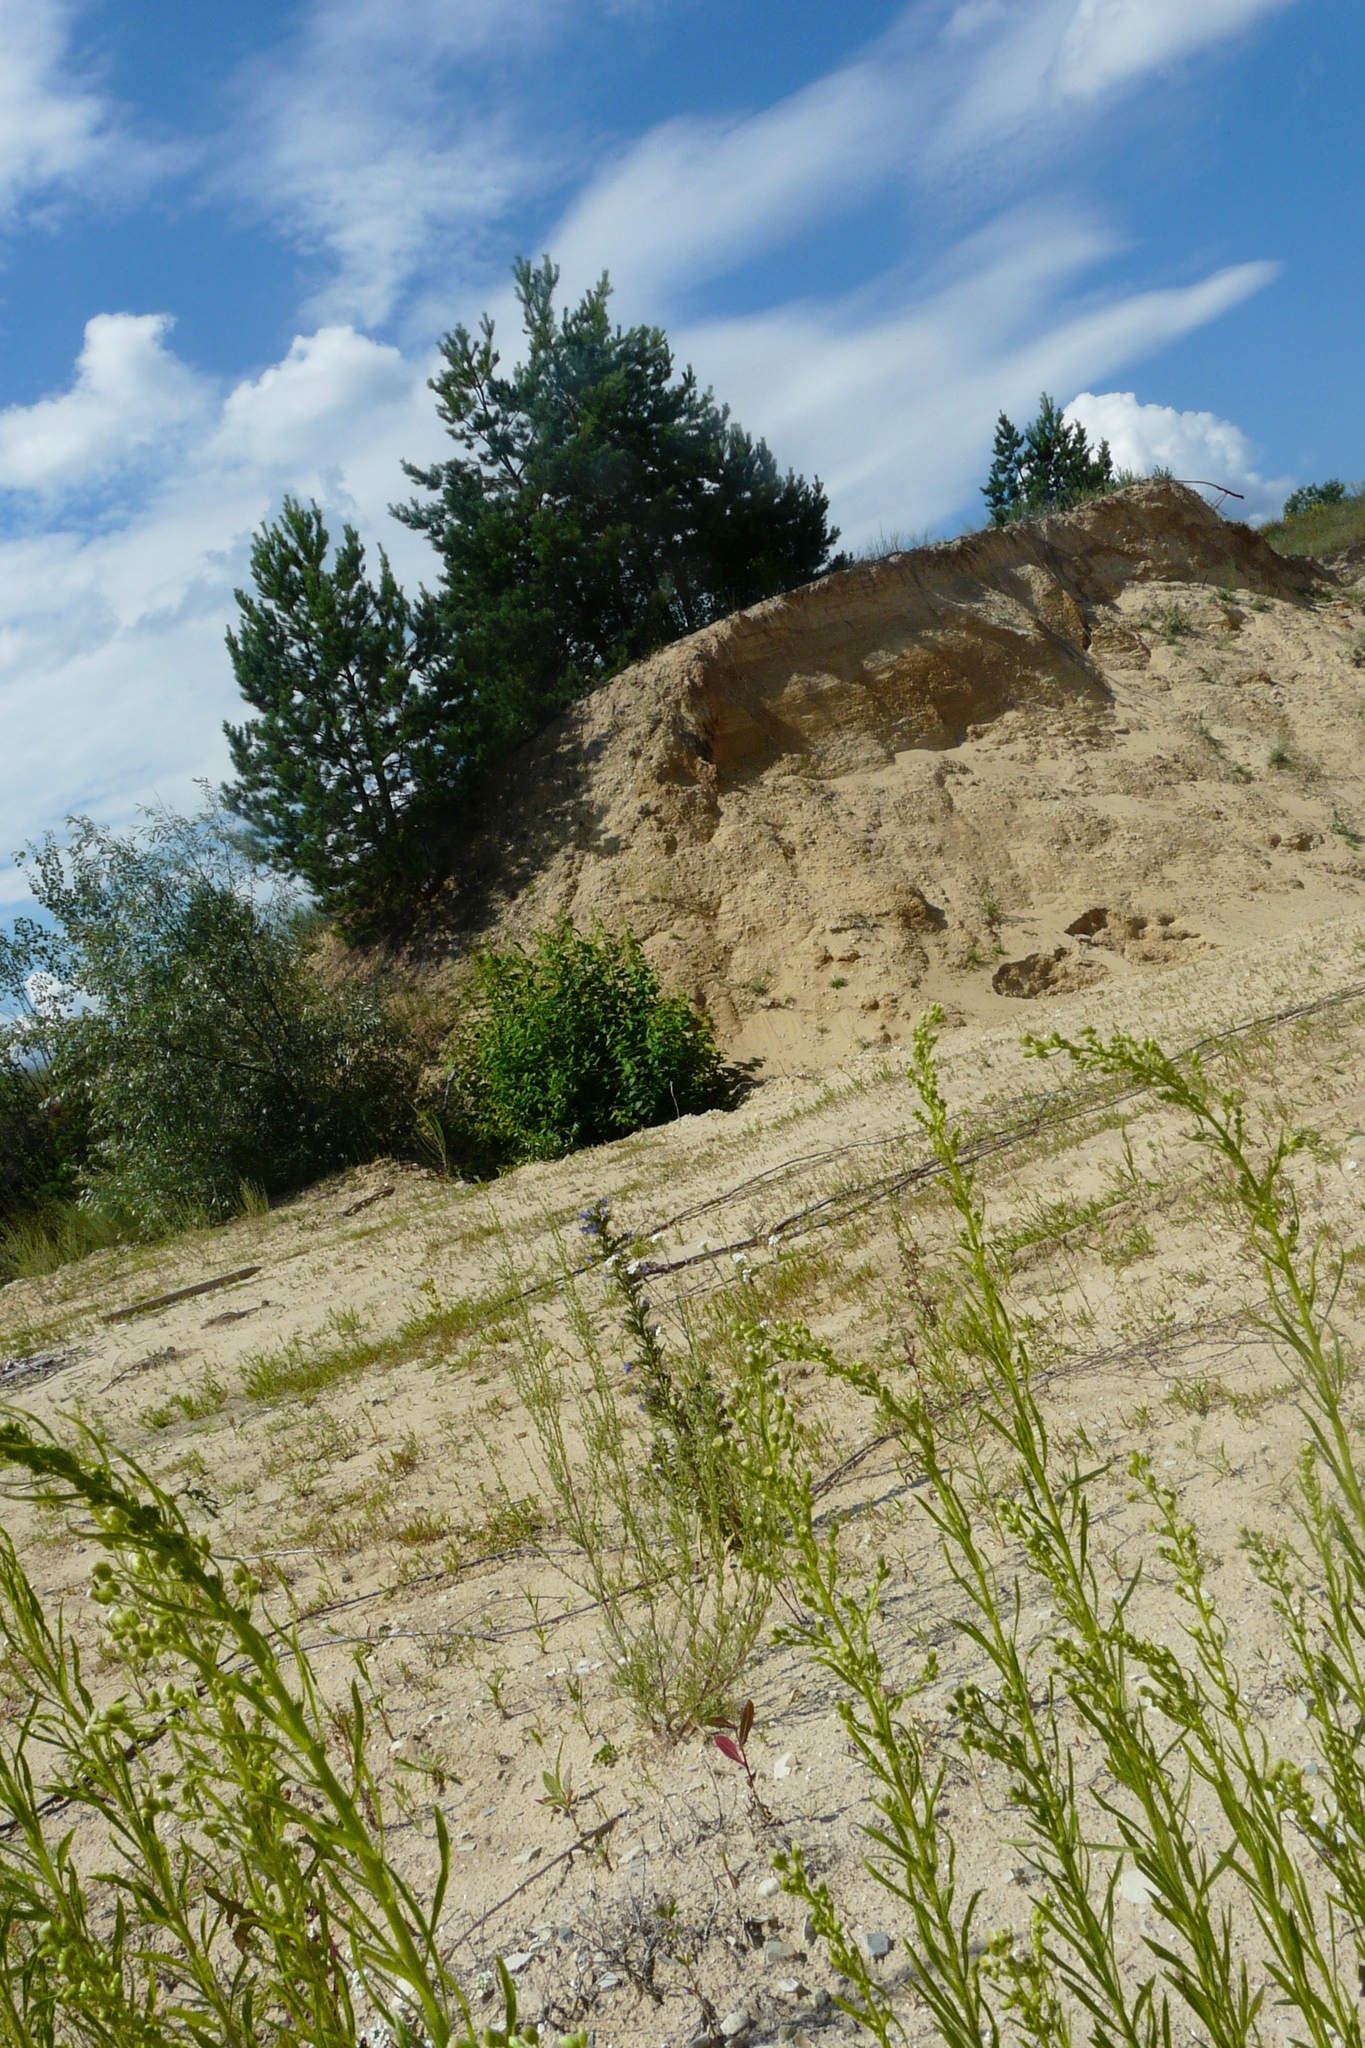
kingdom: Plantae
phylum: Tracheophyta
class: Magnoliopsida
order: Asterales
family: Asteraceae
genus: Erigeron
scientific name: Erigeron canadensis
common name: Canadian fleabane
